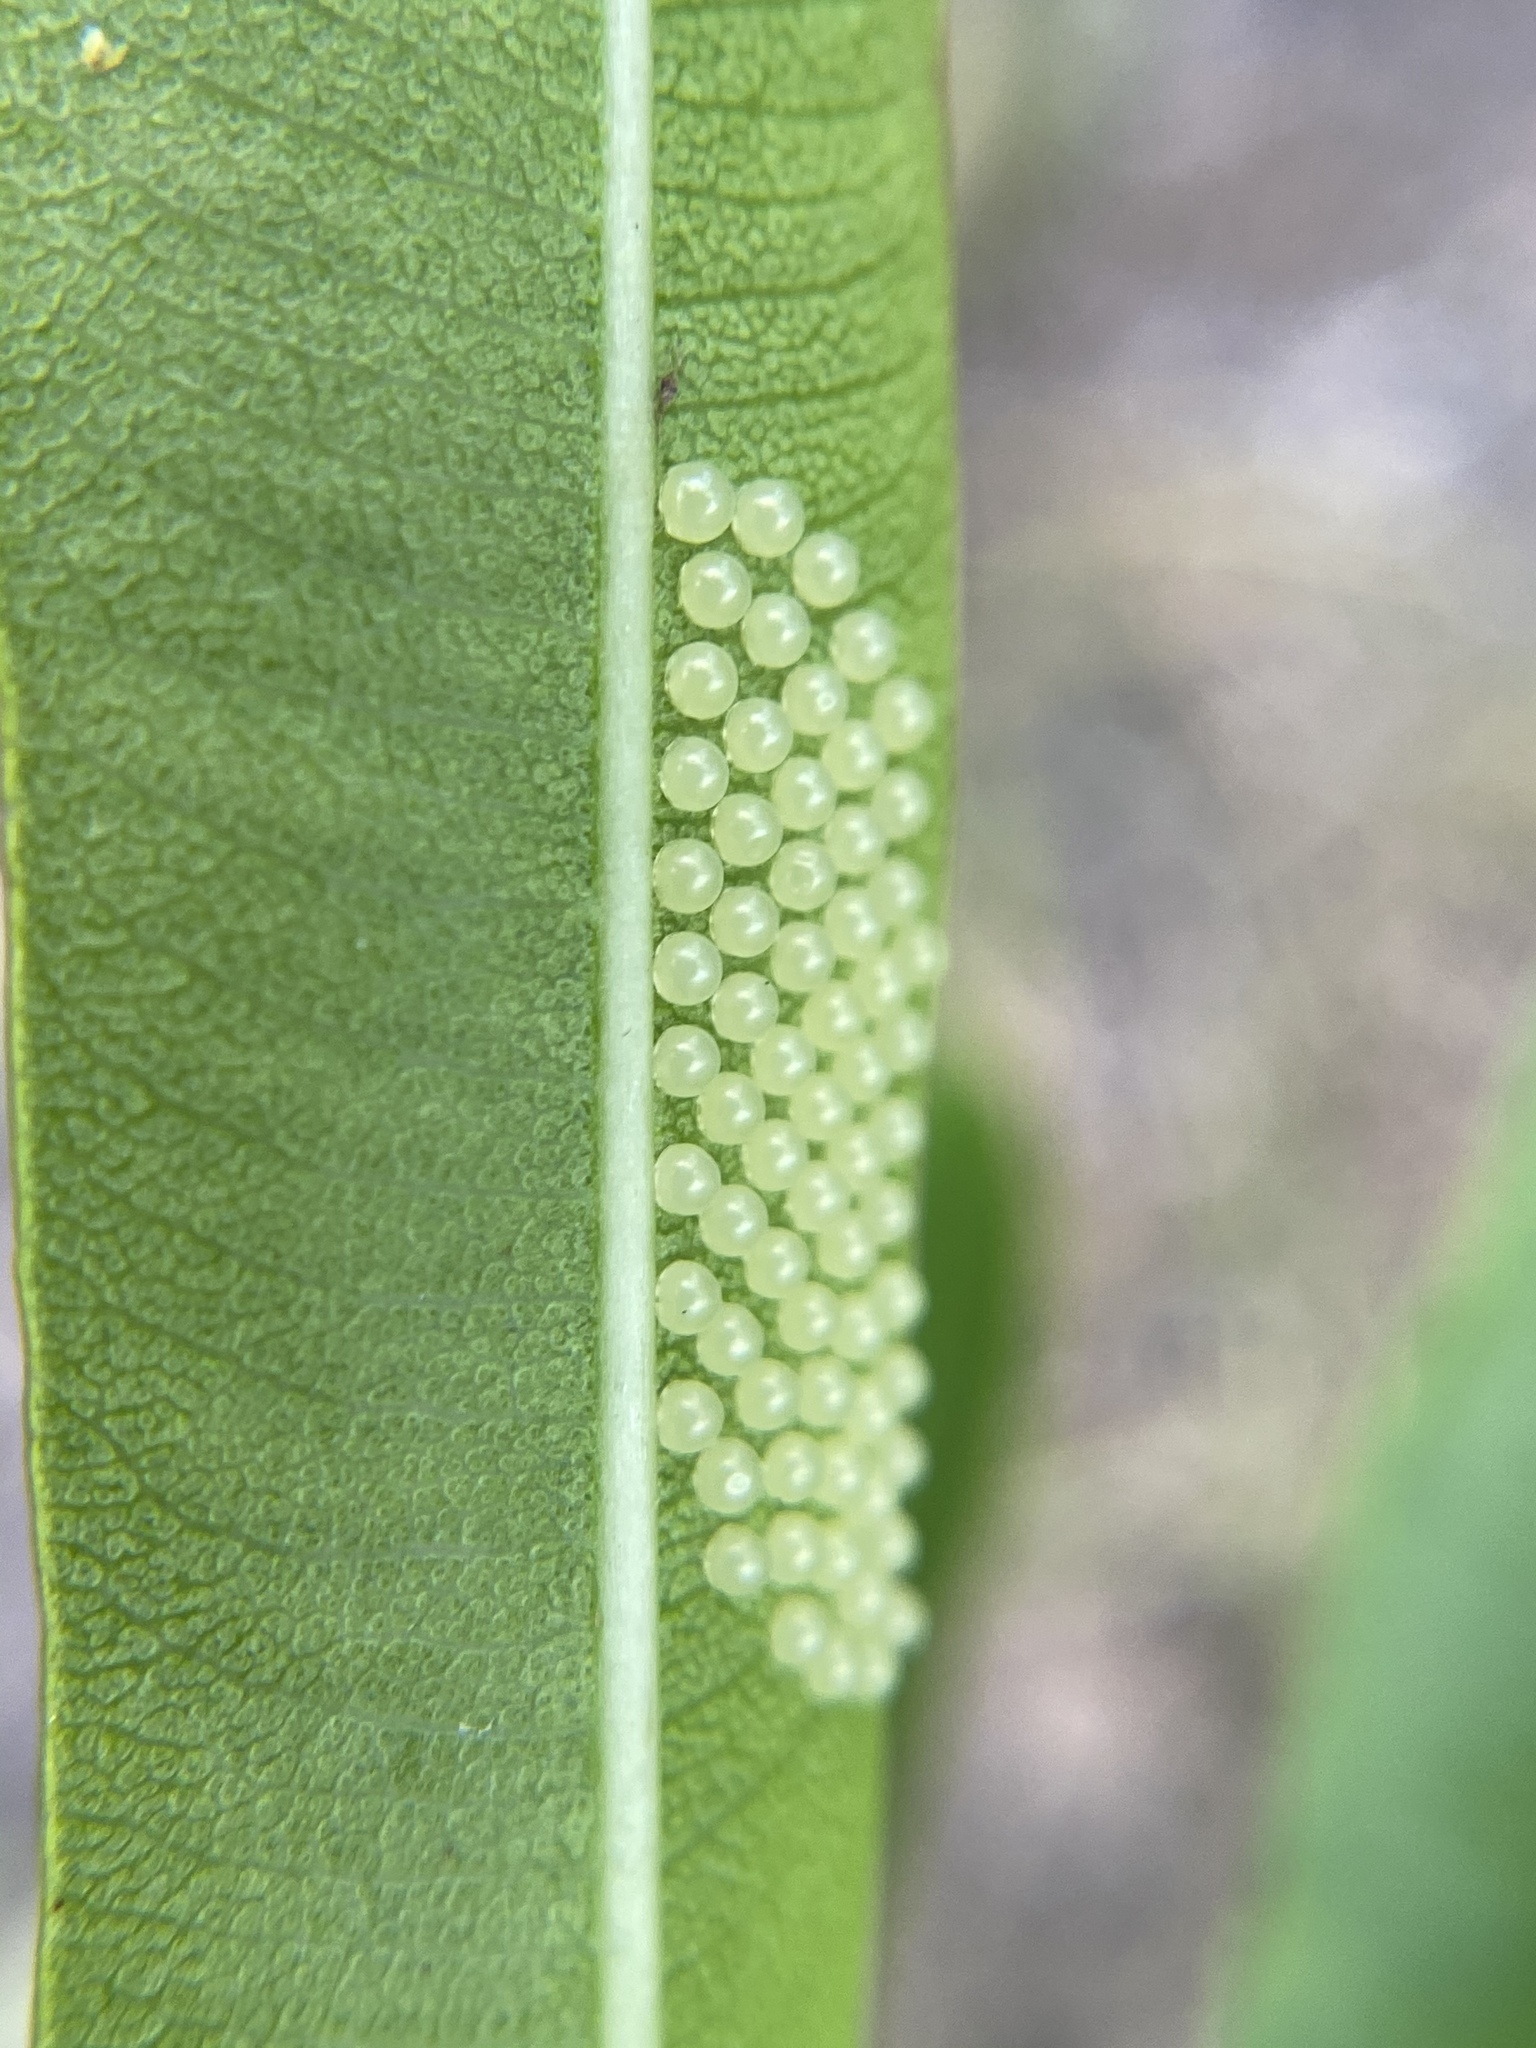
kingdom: Animalia
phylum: Arthropoda
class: Insecta
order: Lepidoptera
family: Erebidae
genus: Syntomeida
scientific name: Syntomeida epilais
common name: Polka-dot wasp moth
